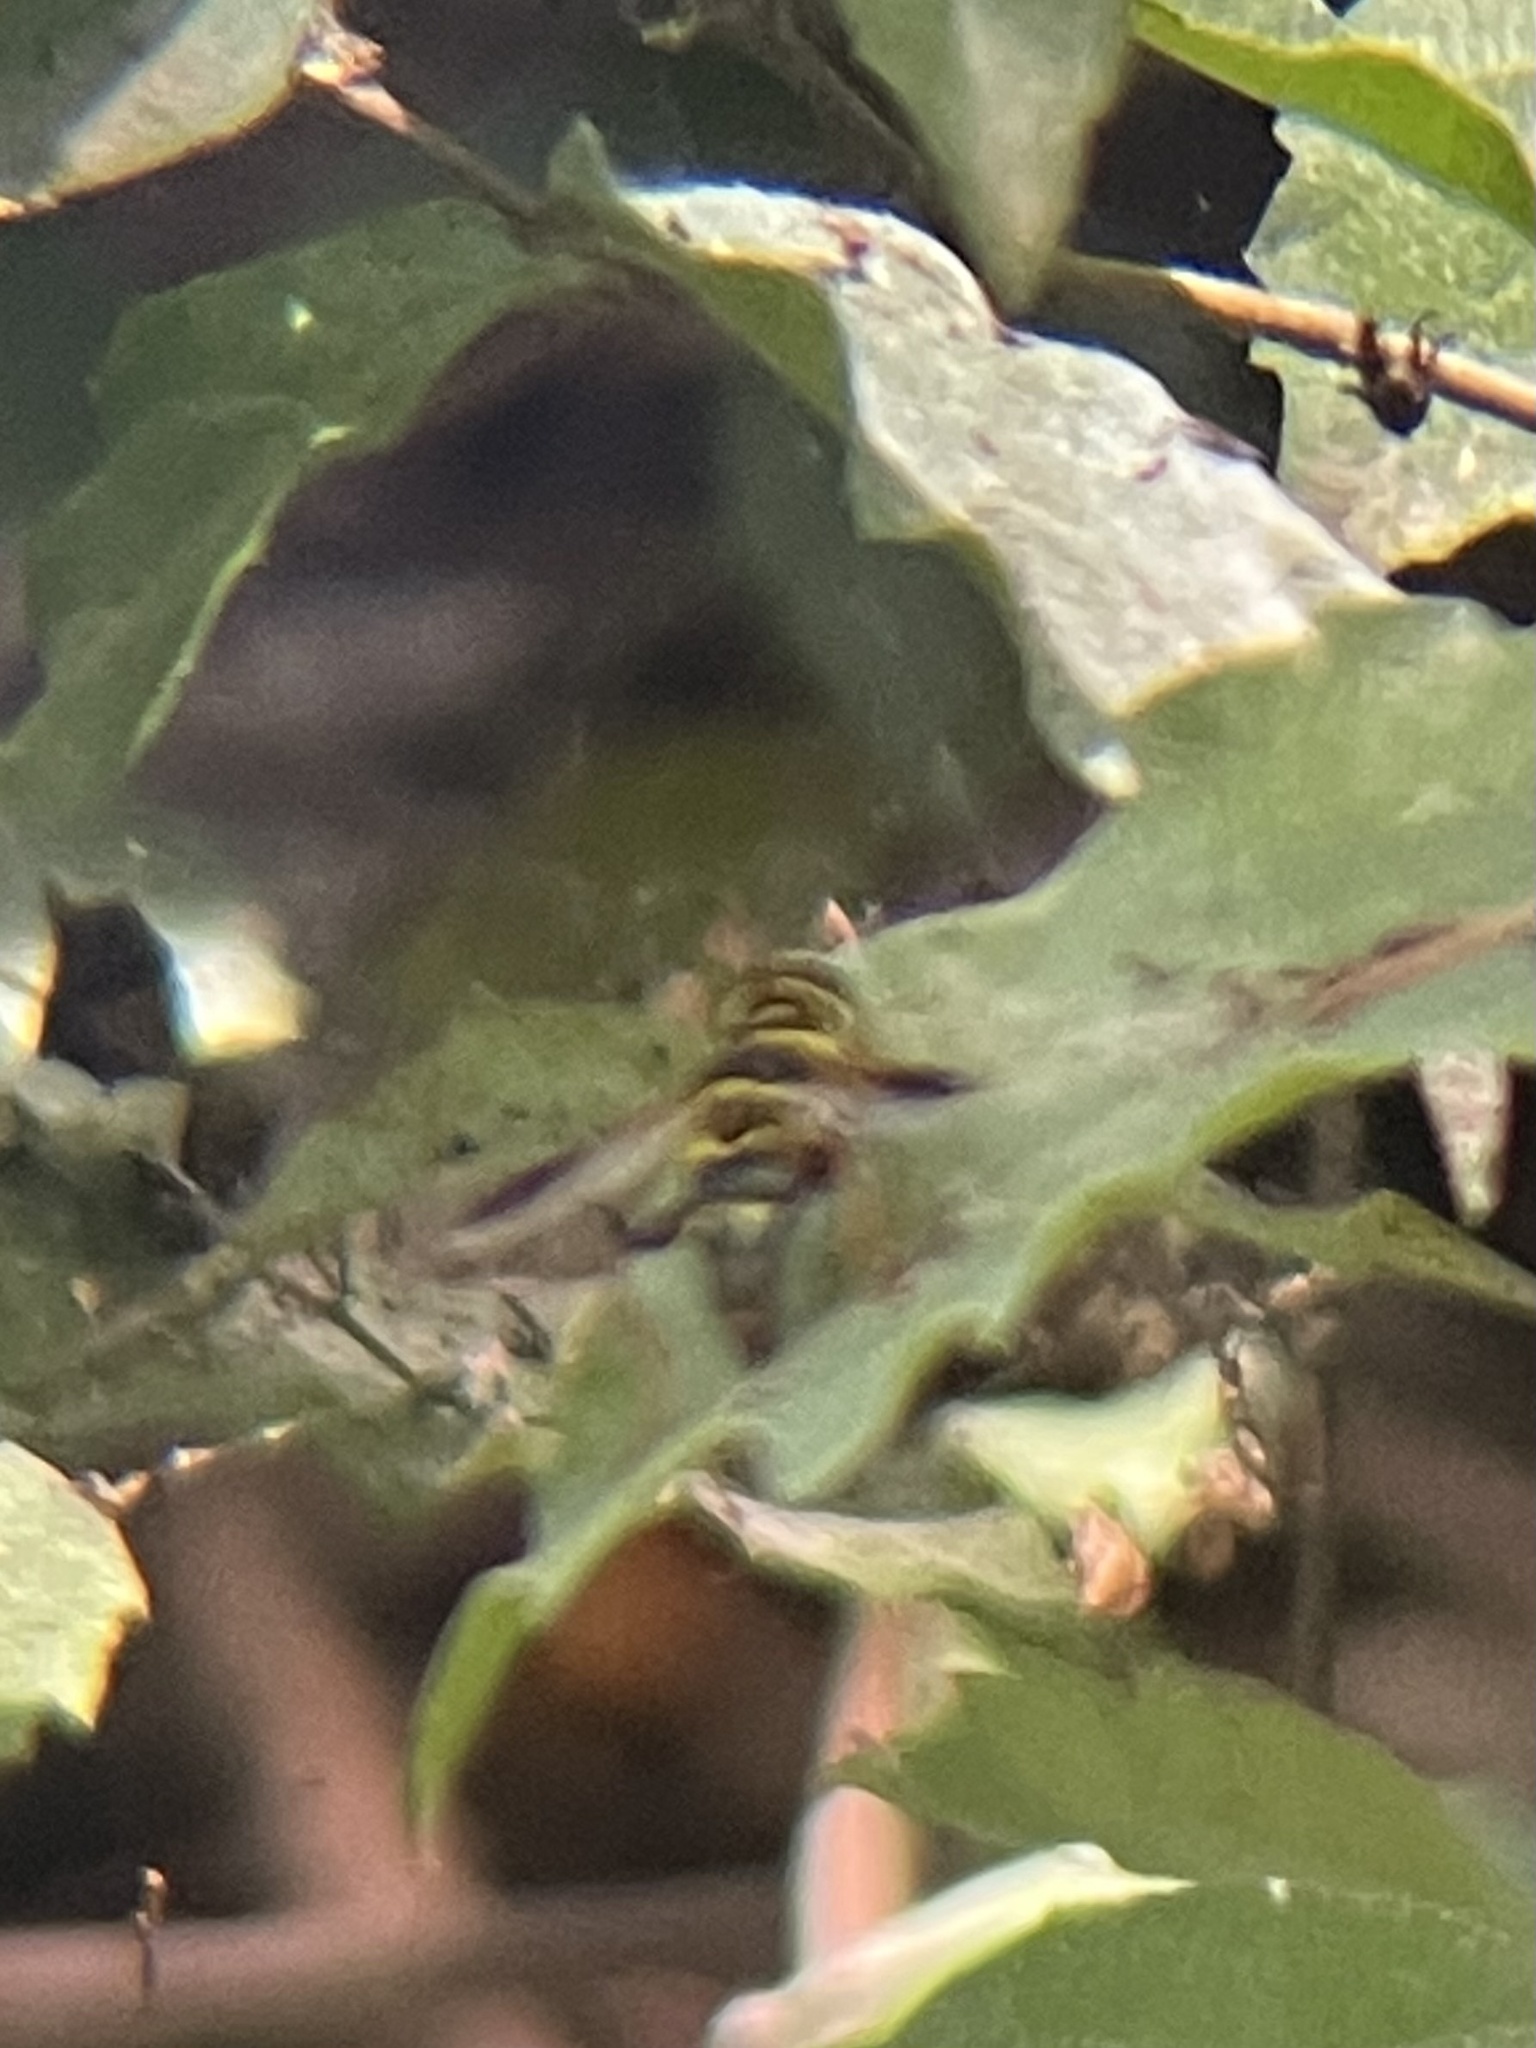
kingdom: Animalia
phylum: Arthropoda
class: Insecta
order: Diptera
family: Syrphidae
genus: Meromacrus
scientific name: Meromacrus acutus
